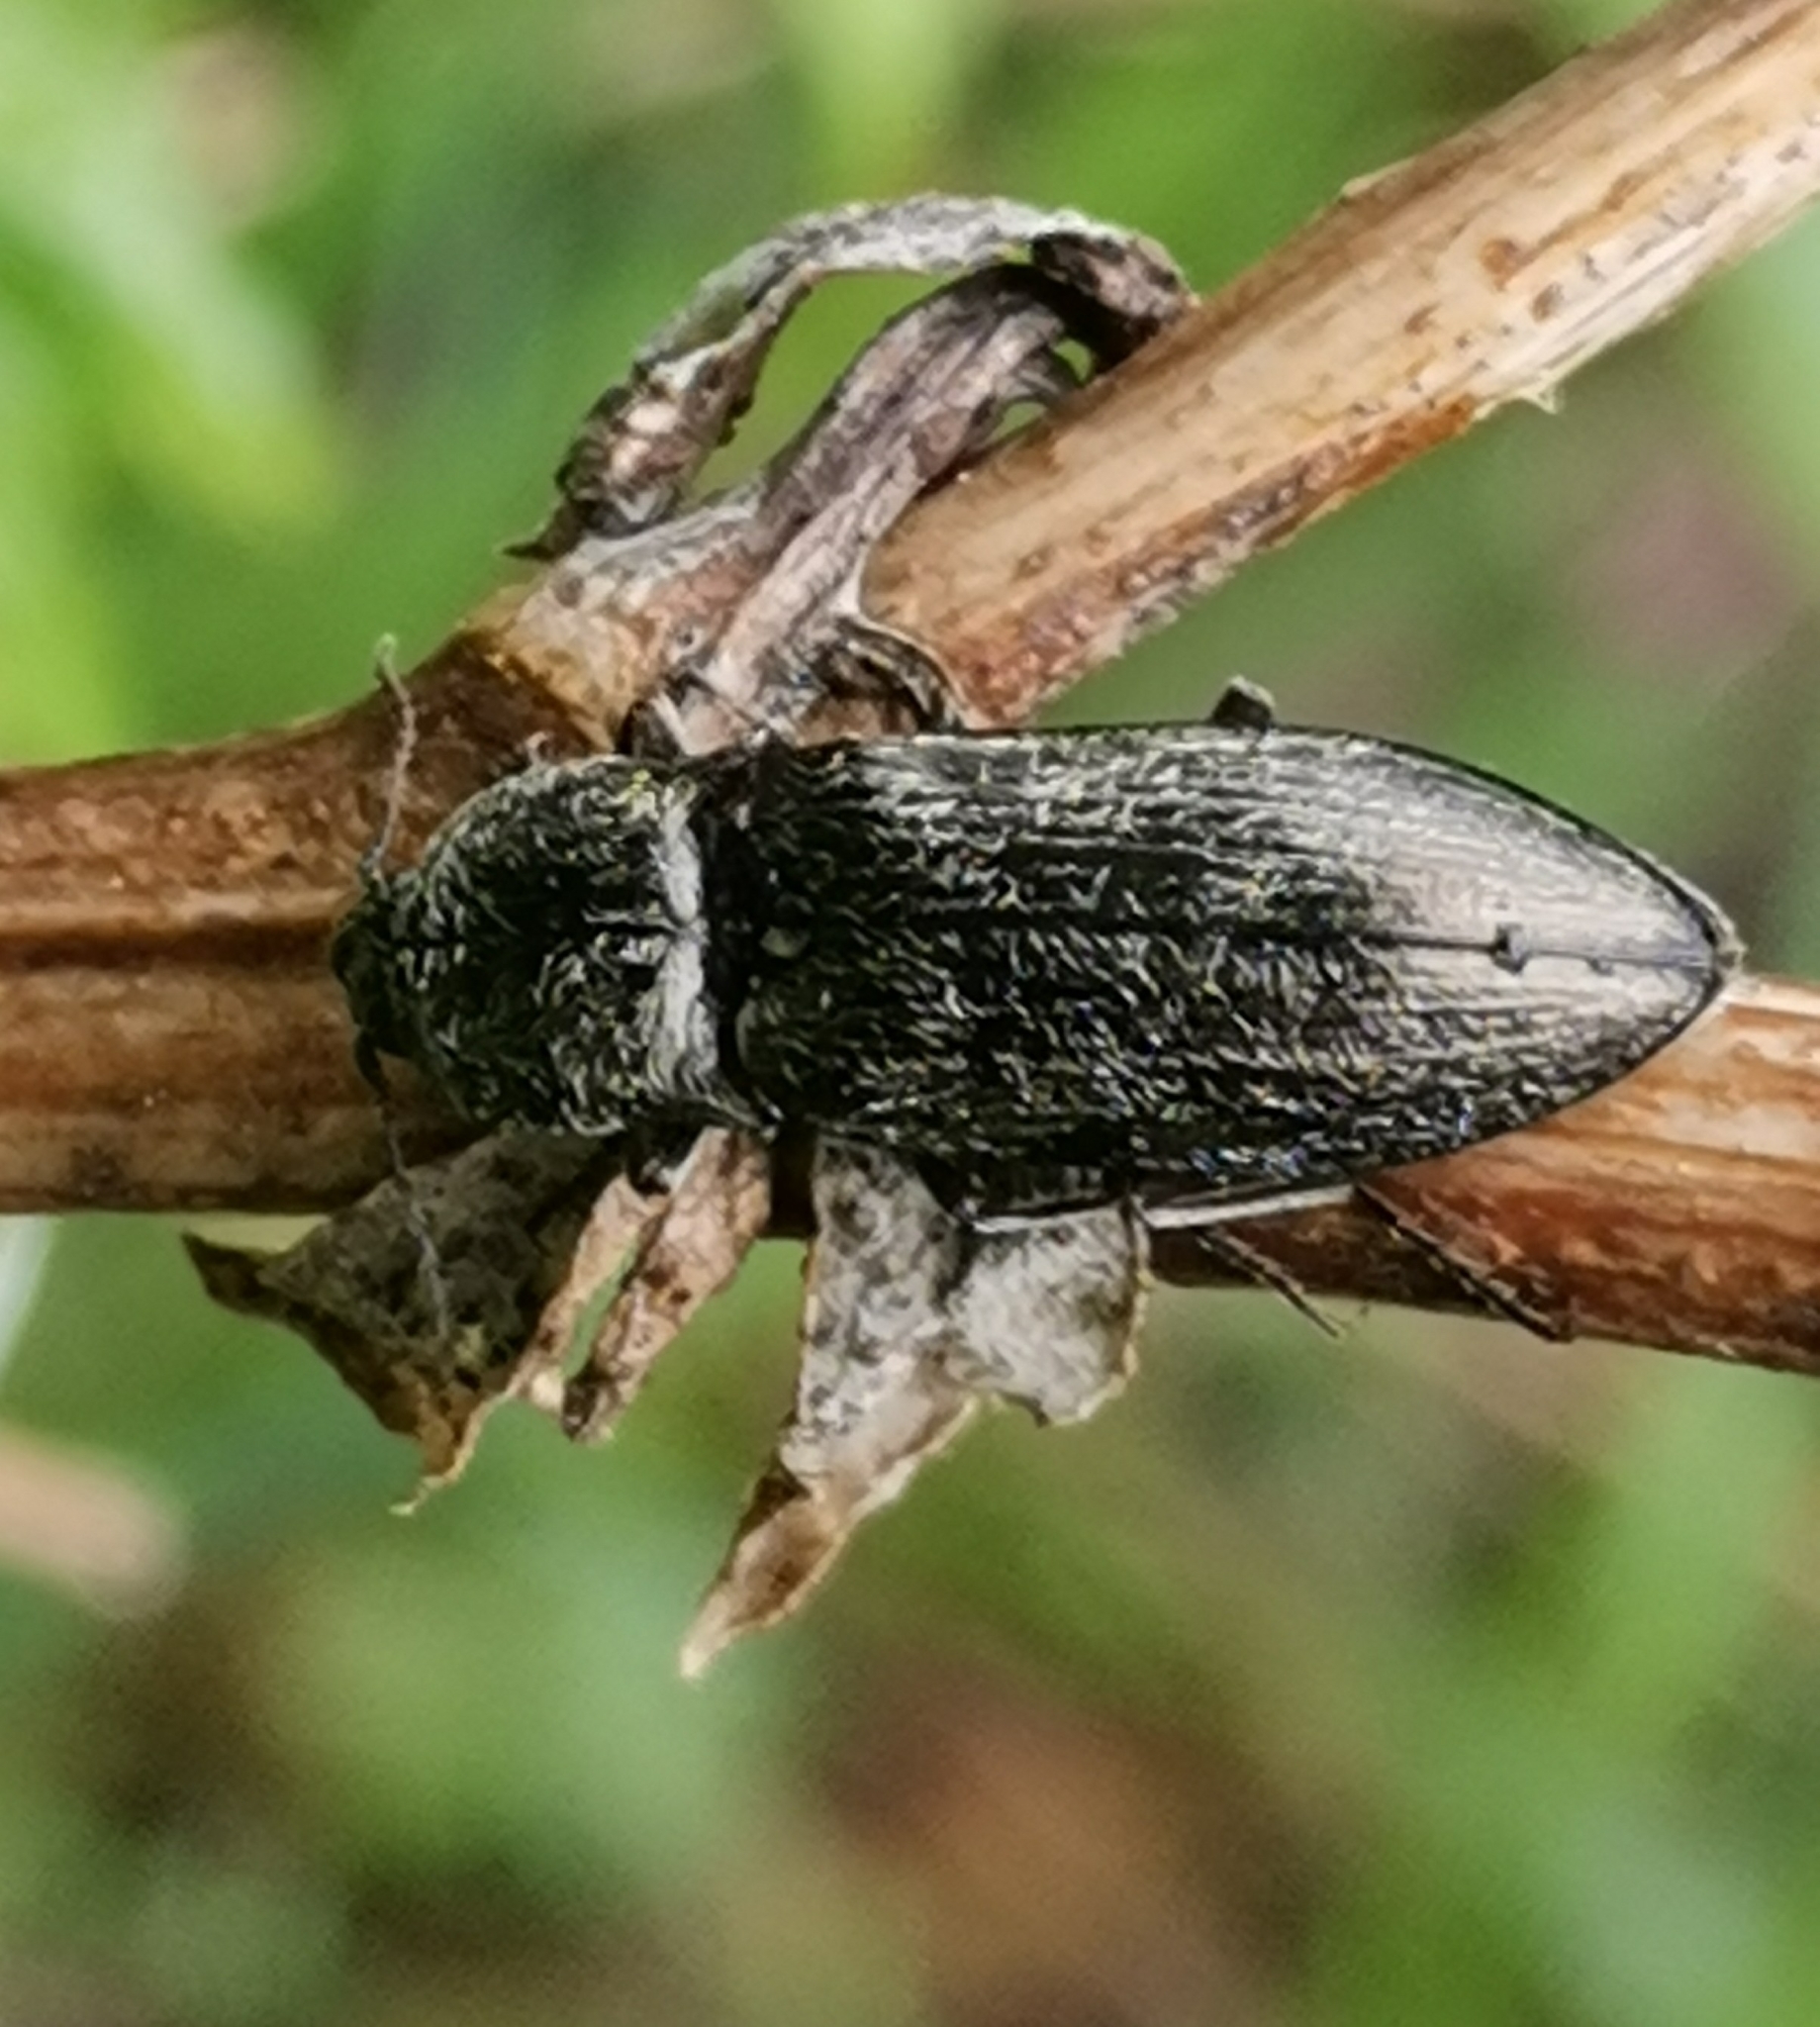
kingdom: Animalia
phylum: Arthropoda
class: Insecta
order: Coleoptera
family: Elateridae
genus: Paraphotistus
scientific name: Paraphotistus impressus
